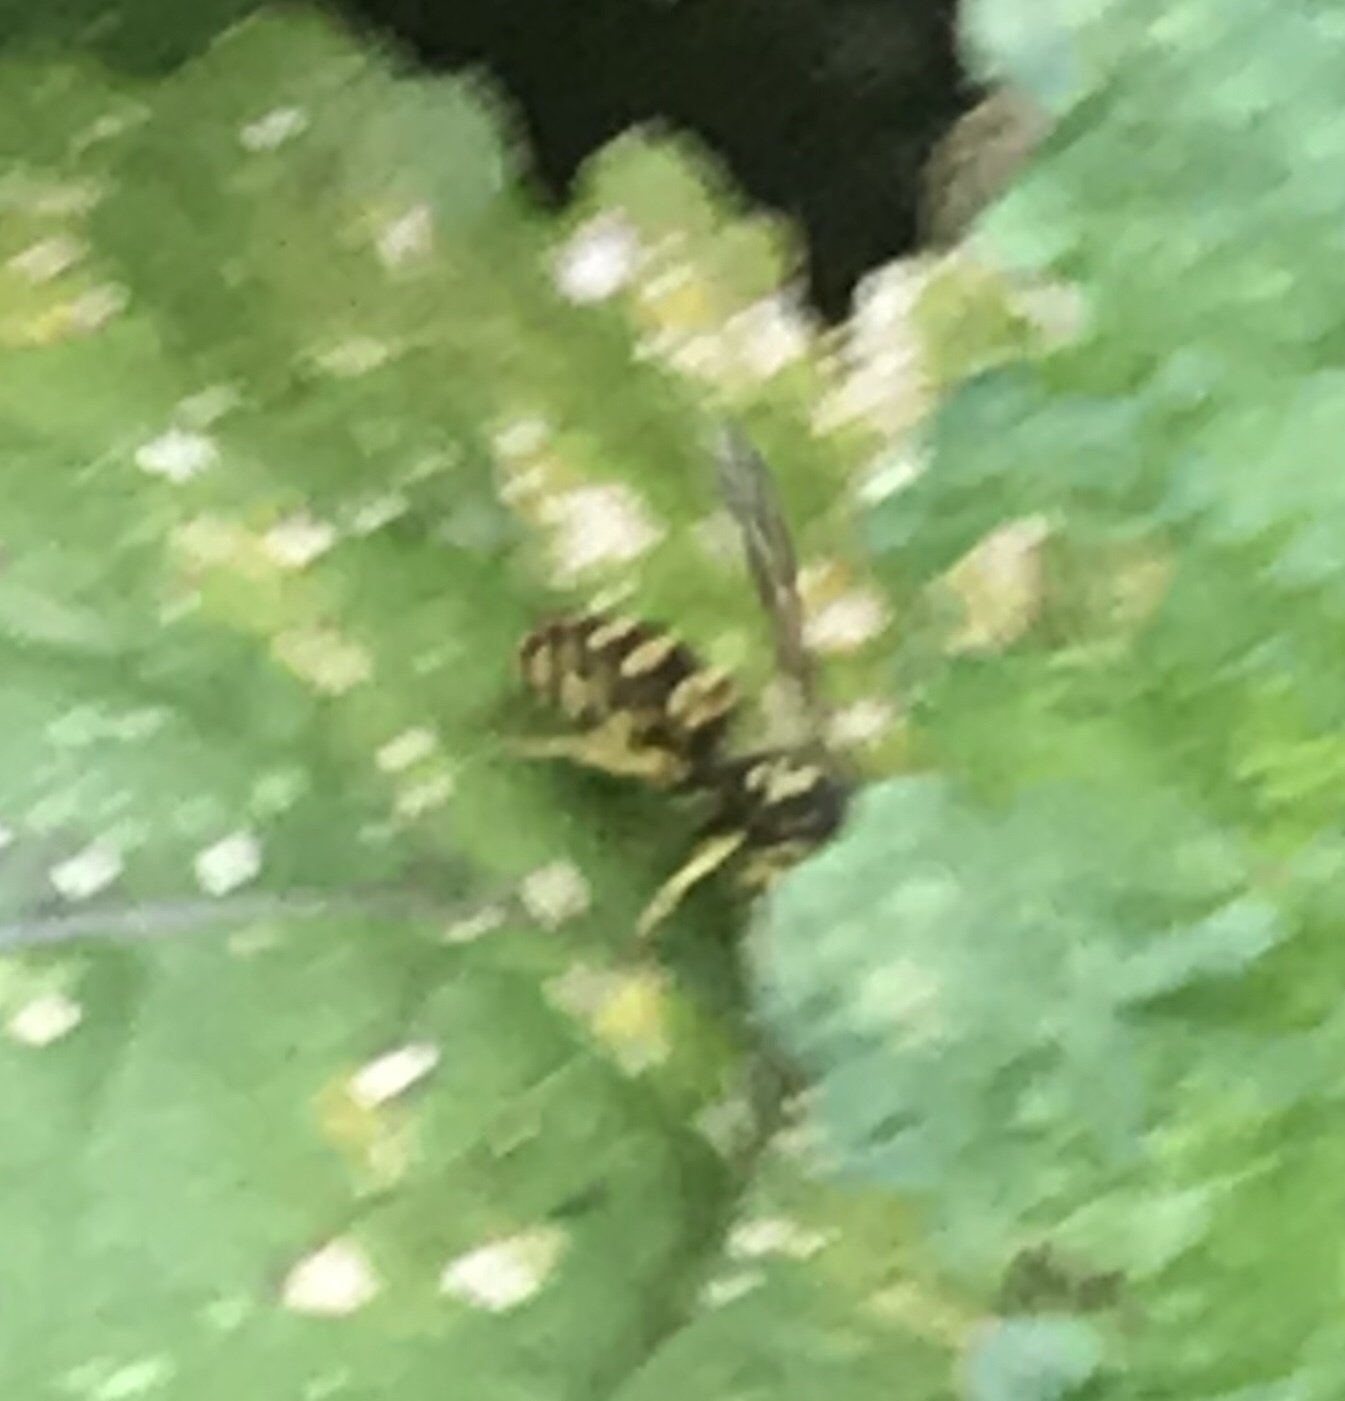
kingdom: Animalia
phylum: Arthropoda
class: Insecta
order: Hymenoptera
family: Vespidae
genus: Vespula
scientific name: Vespula maculifrons
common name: Eastern yellowjacket
